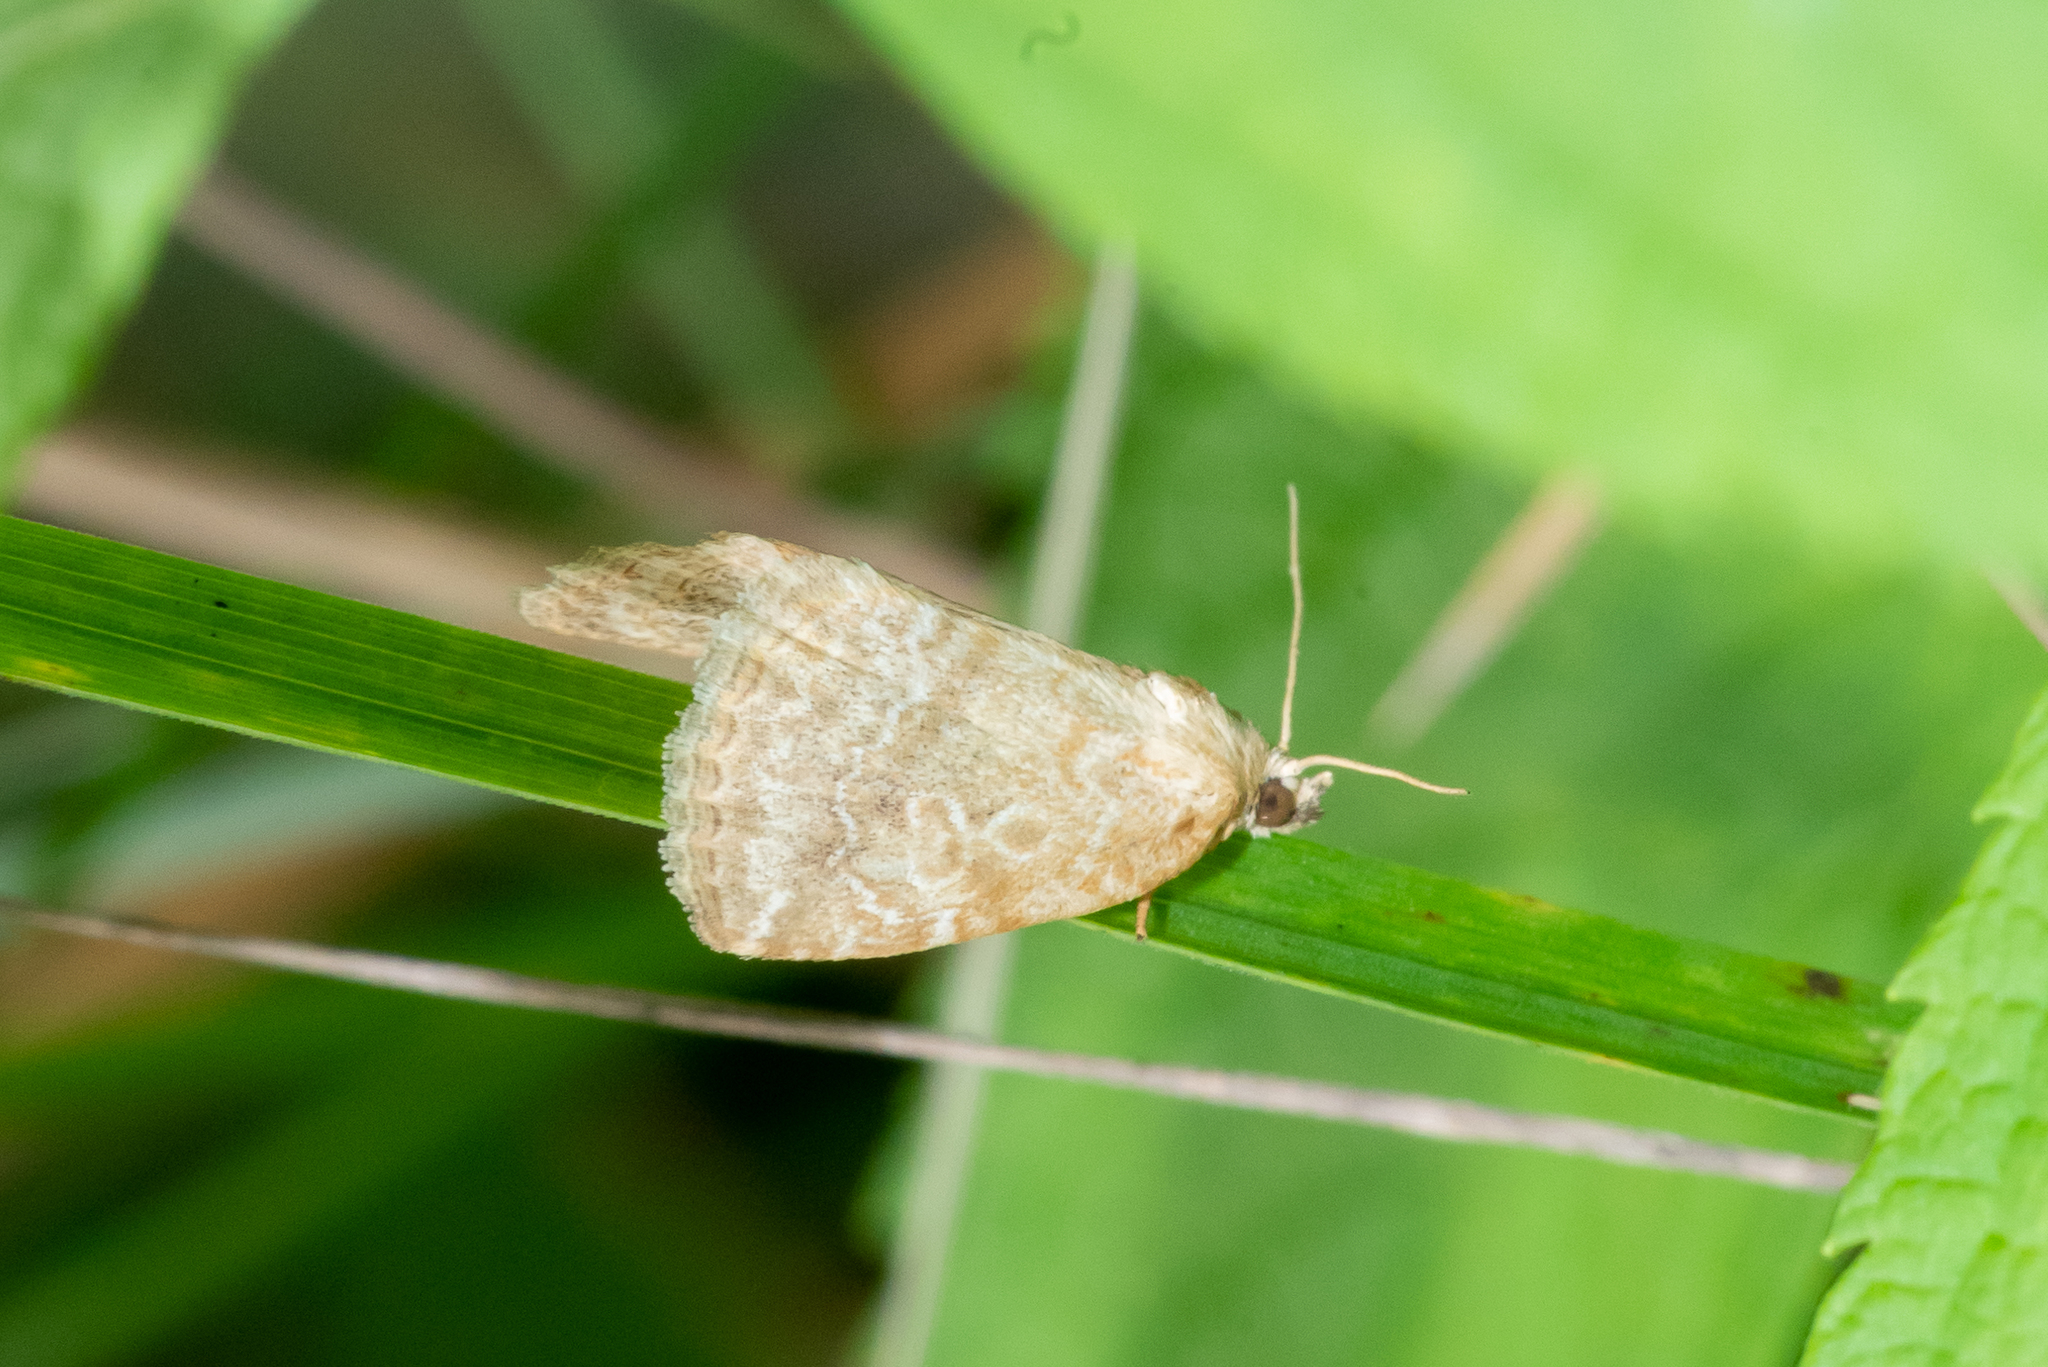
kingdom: Animalia
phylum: Arthropoda
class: Insecta
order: Lepidoptera
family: Noctuidae
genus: Protodeltote
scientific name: Protodeltote albidula
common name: Pale glyph
